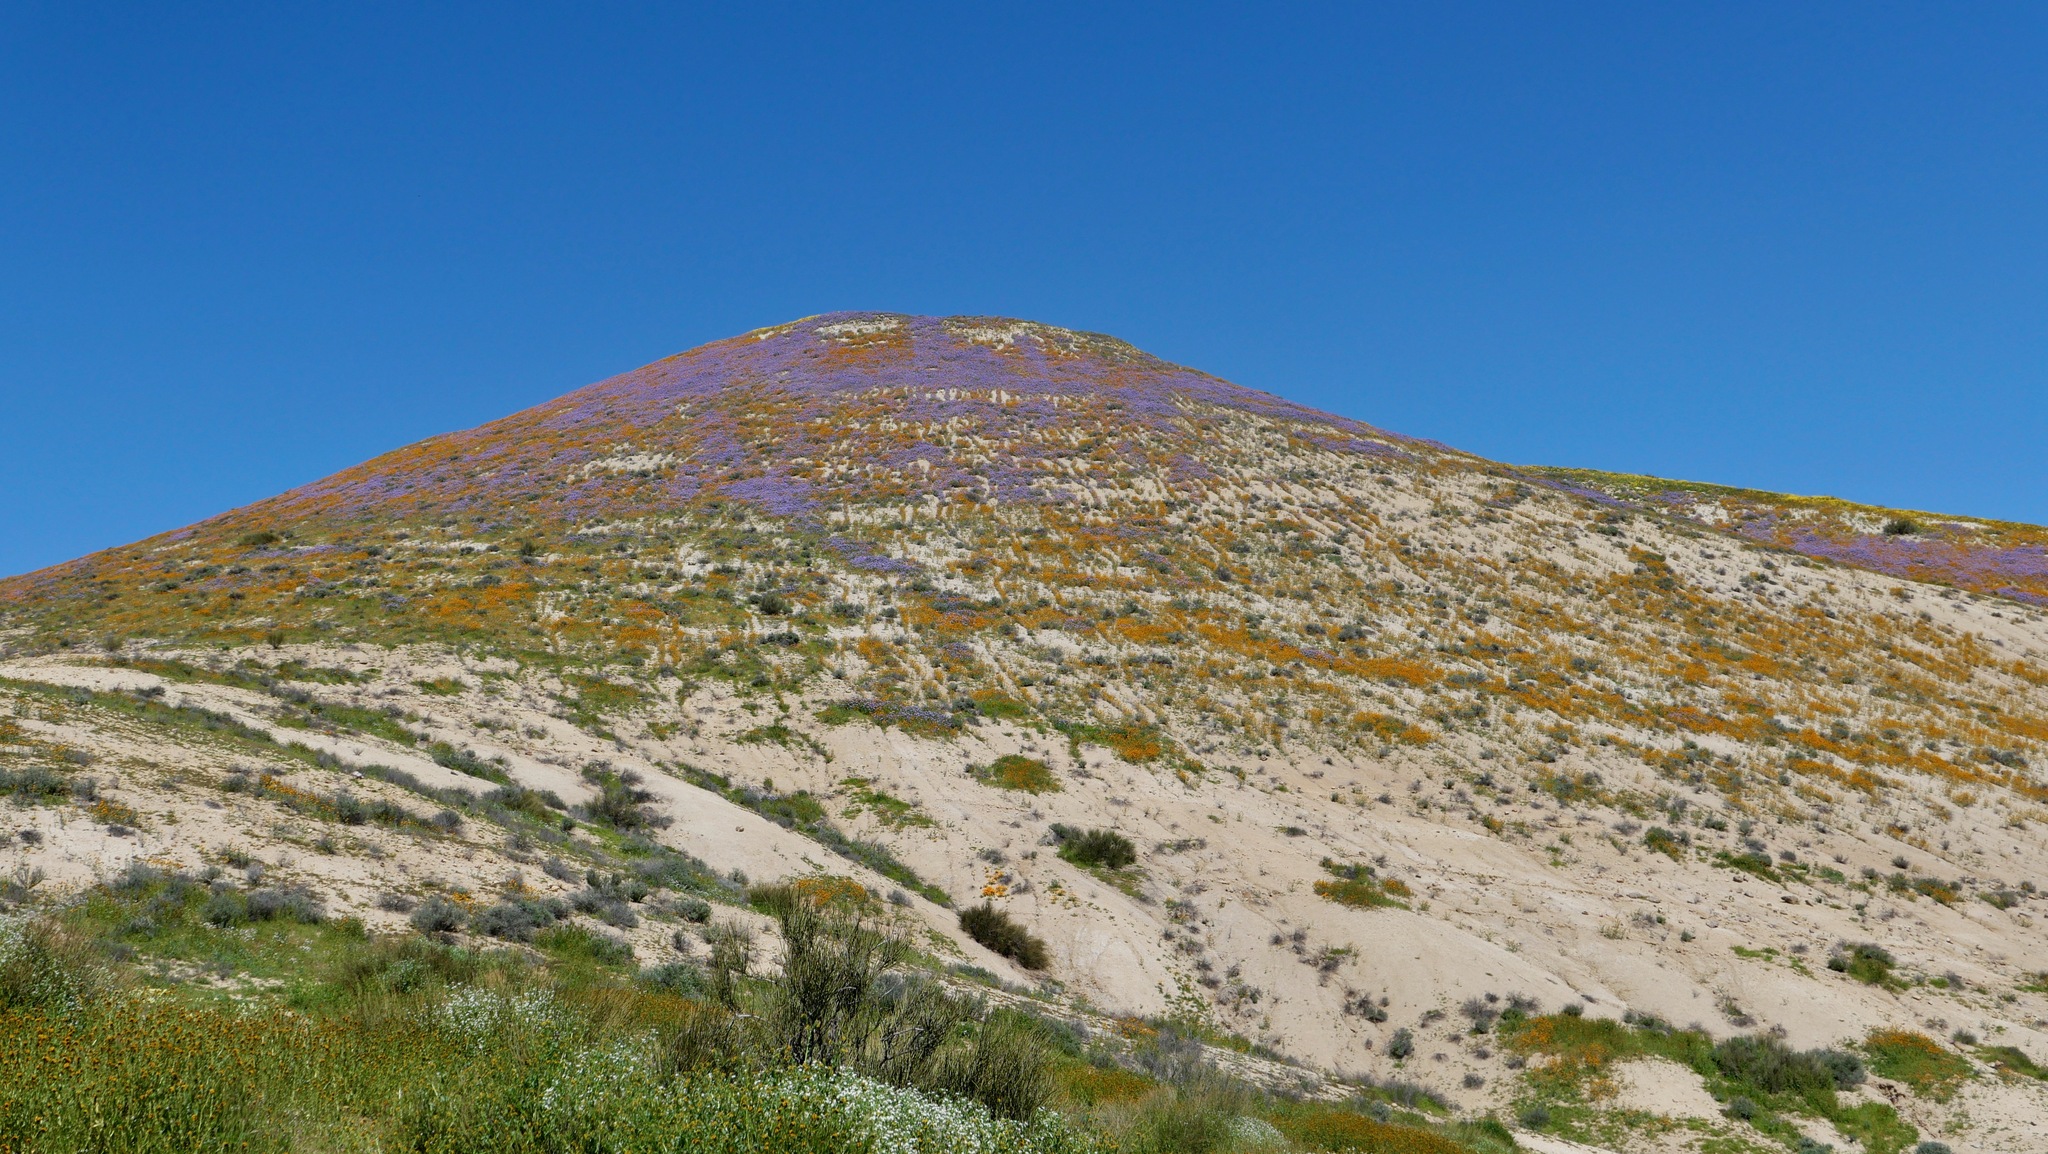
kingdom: Plantae
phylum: Tracheophyta
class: Magnoliopsida
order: Boraginales
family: Boraginaceae
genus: Amsinckia
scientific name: Amsinckia vernicosa
